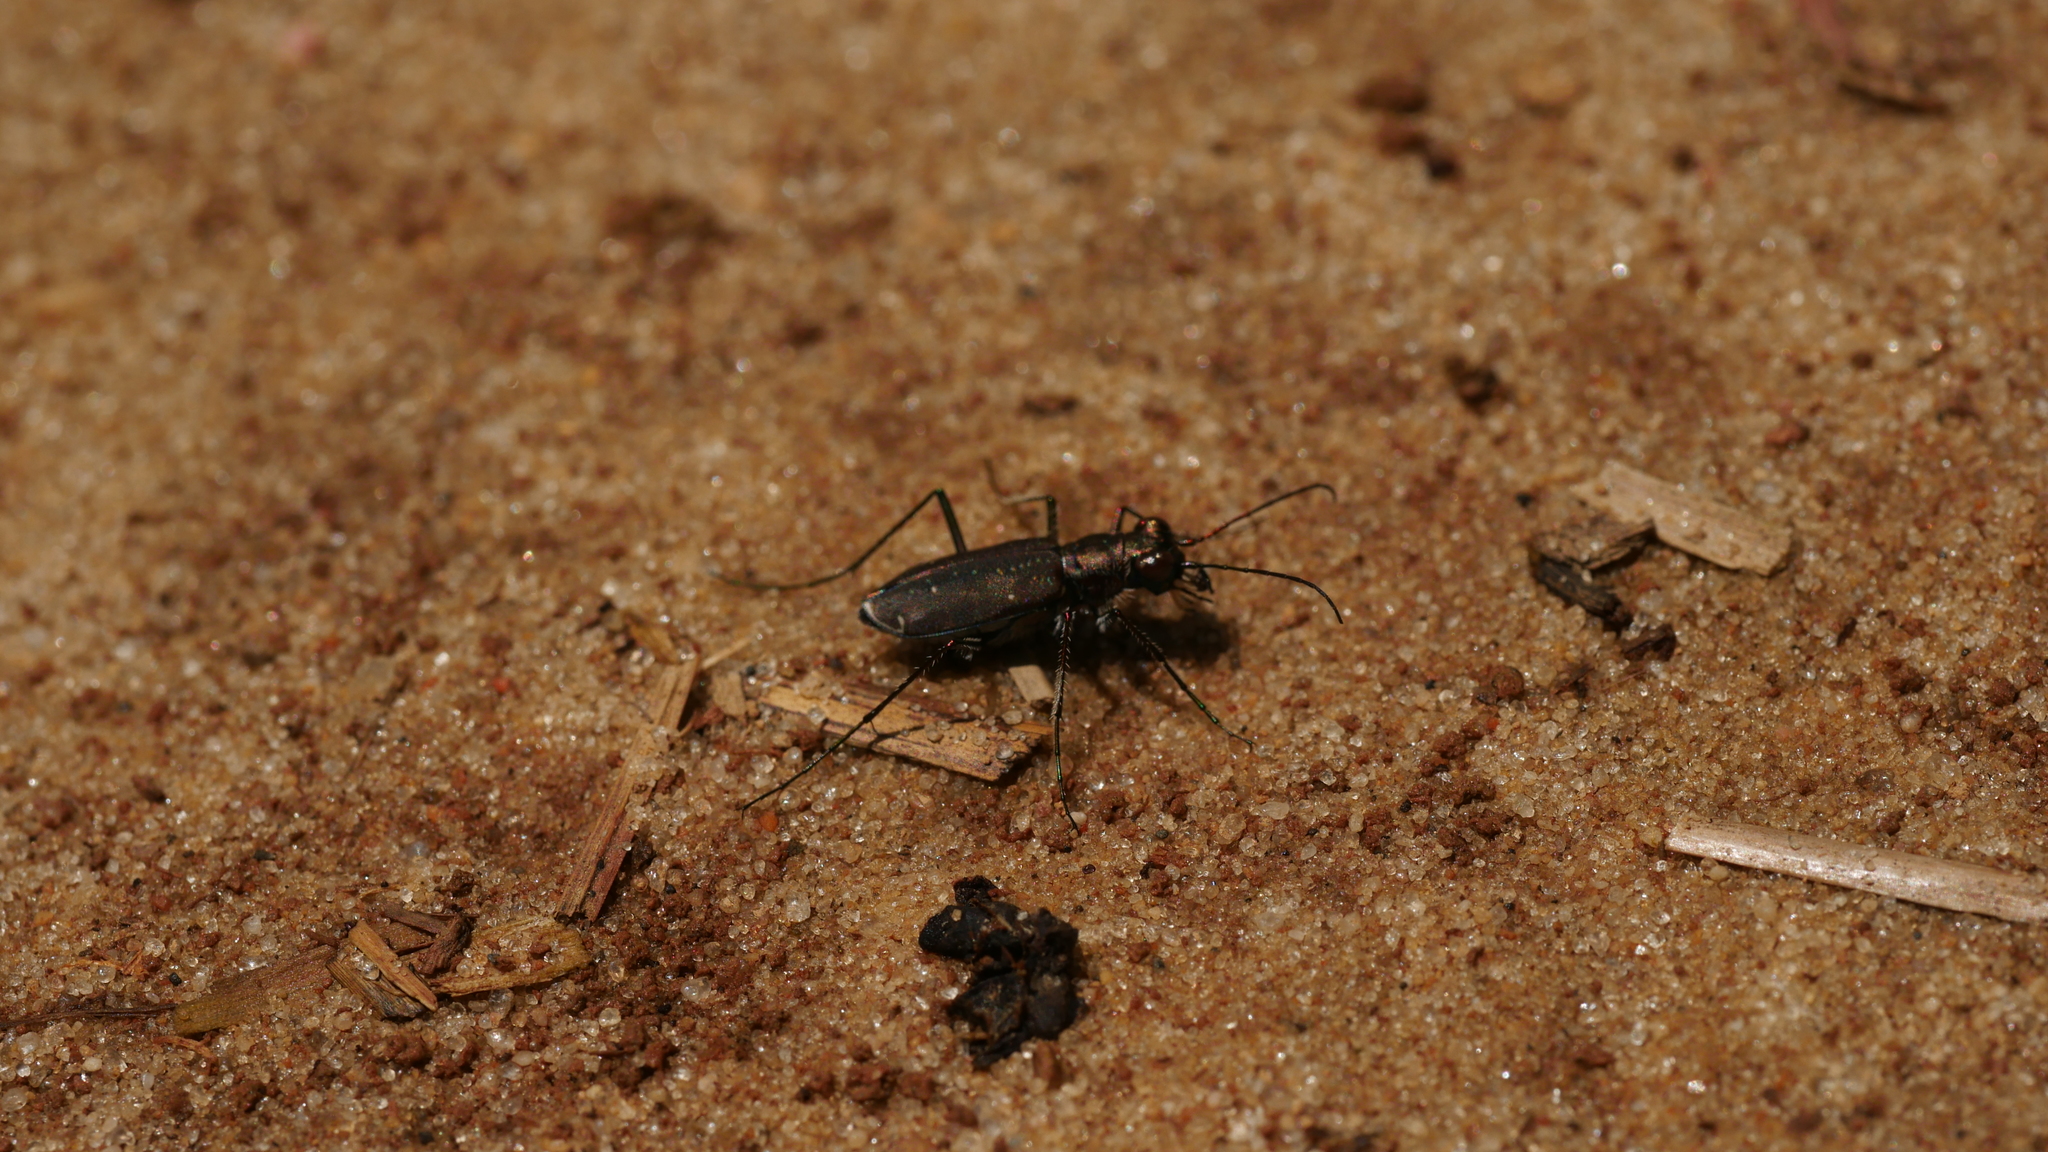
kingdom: Animalia
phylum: Arthropoda
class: Insecta
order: Coleoptera
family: Carabidae
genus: Cicindela
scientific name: Cicindela punctulata
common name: Punctured tiger beetle
